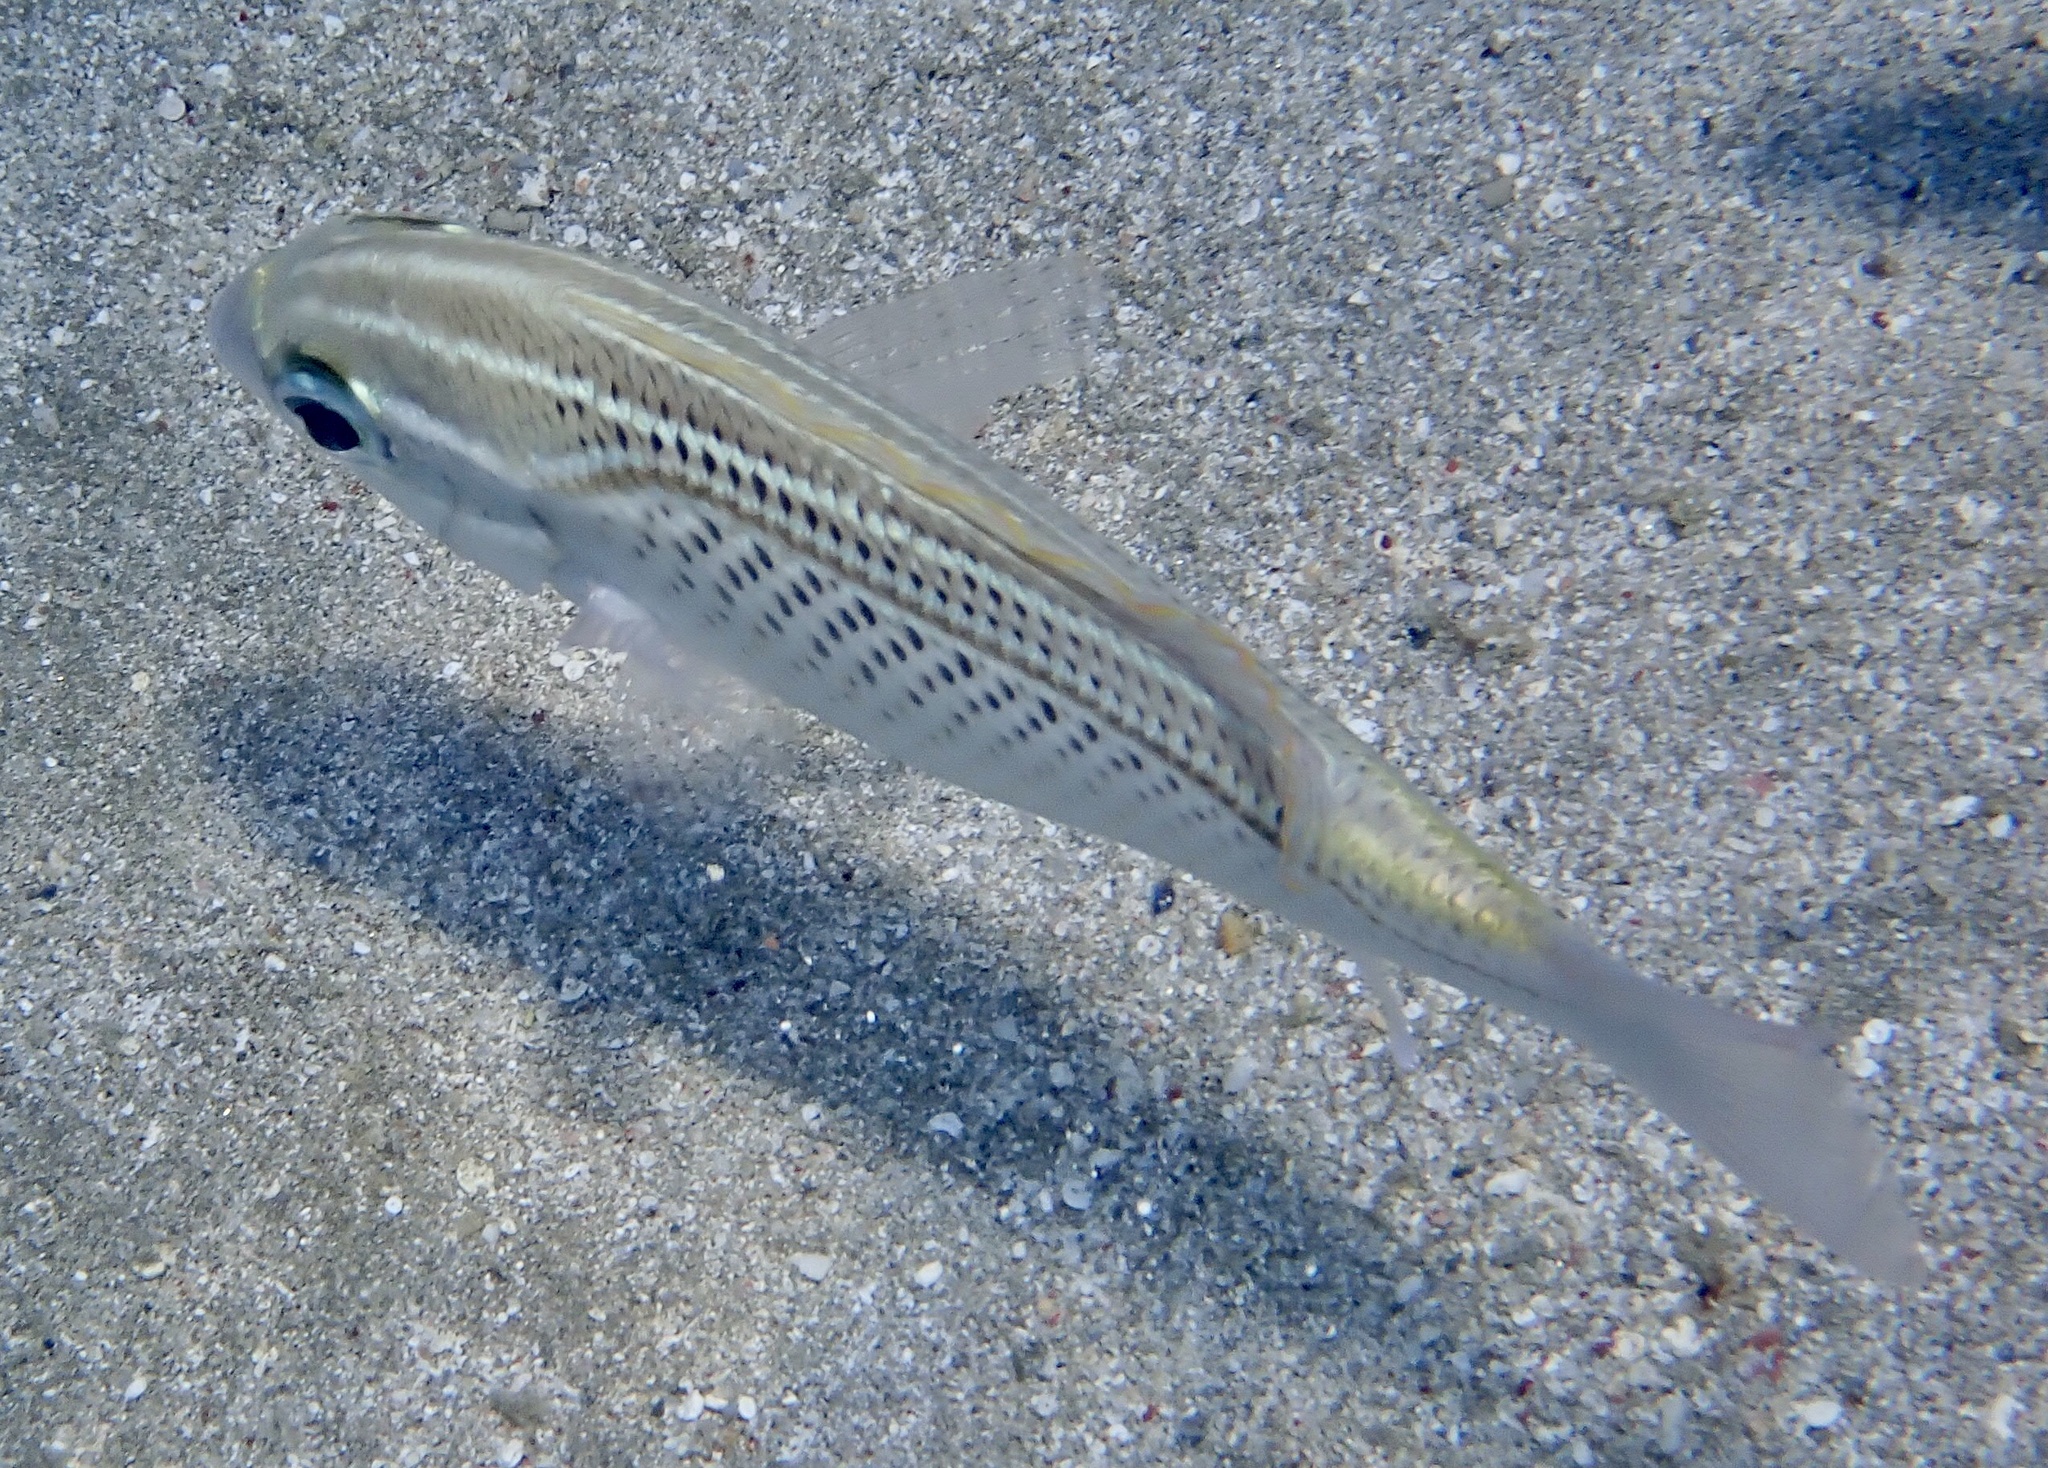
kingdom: Animalia
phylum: Chordata
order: Perciformes
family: Nemipteridae
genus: Scolopsis
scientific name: Scolopsis ghanam
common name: Arabian monocle bream
